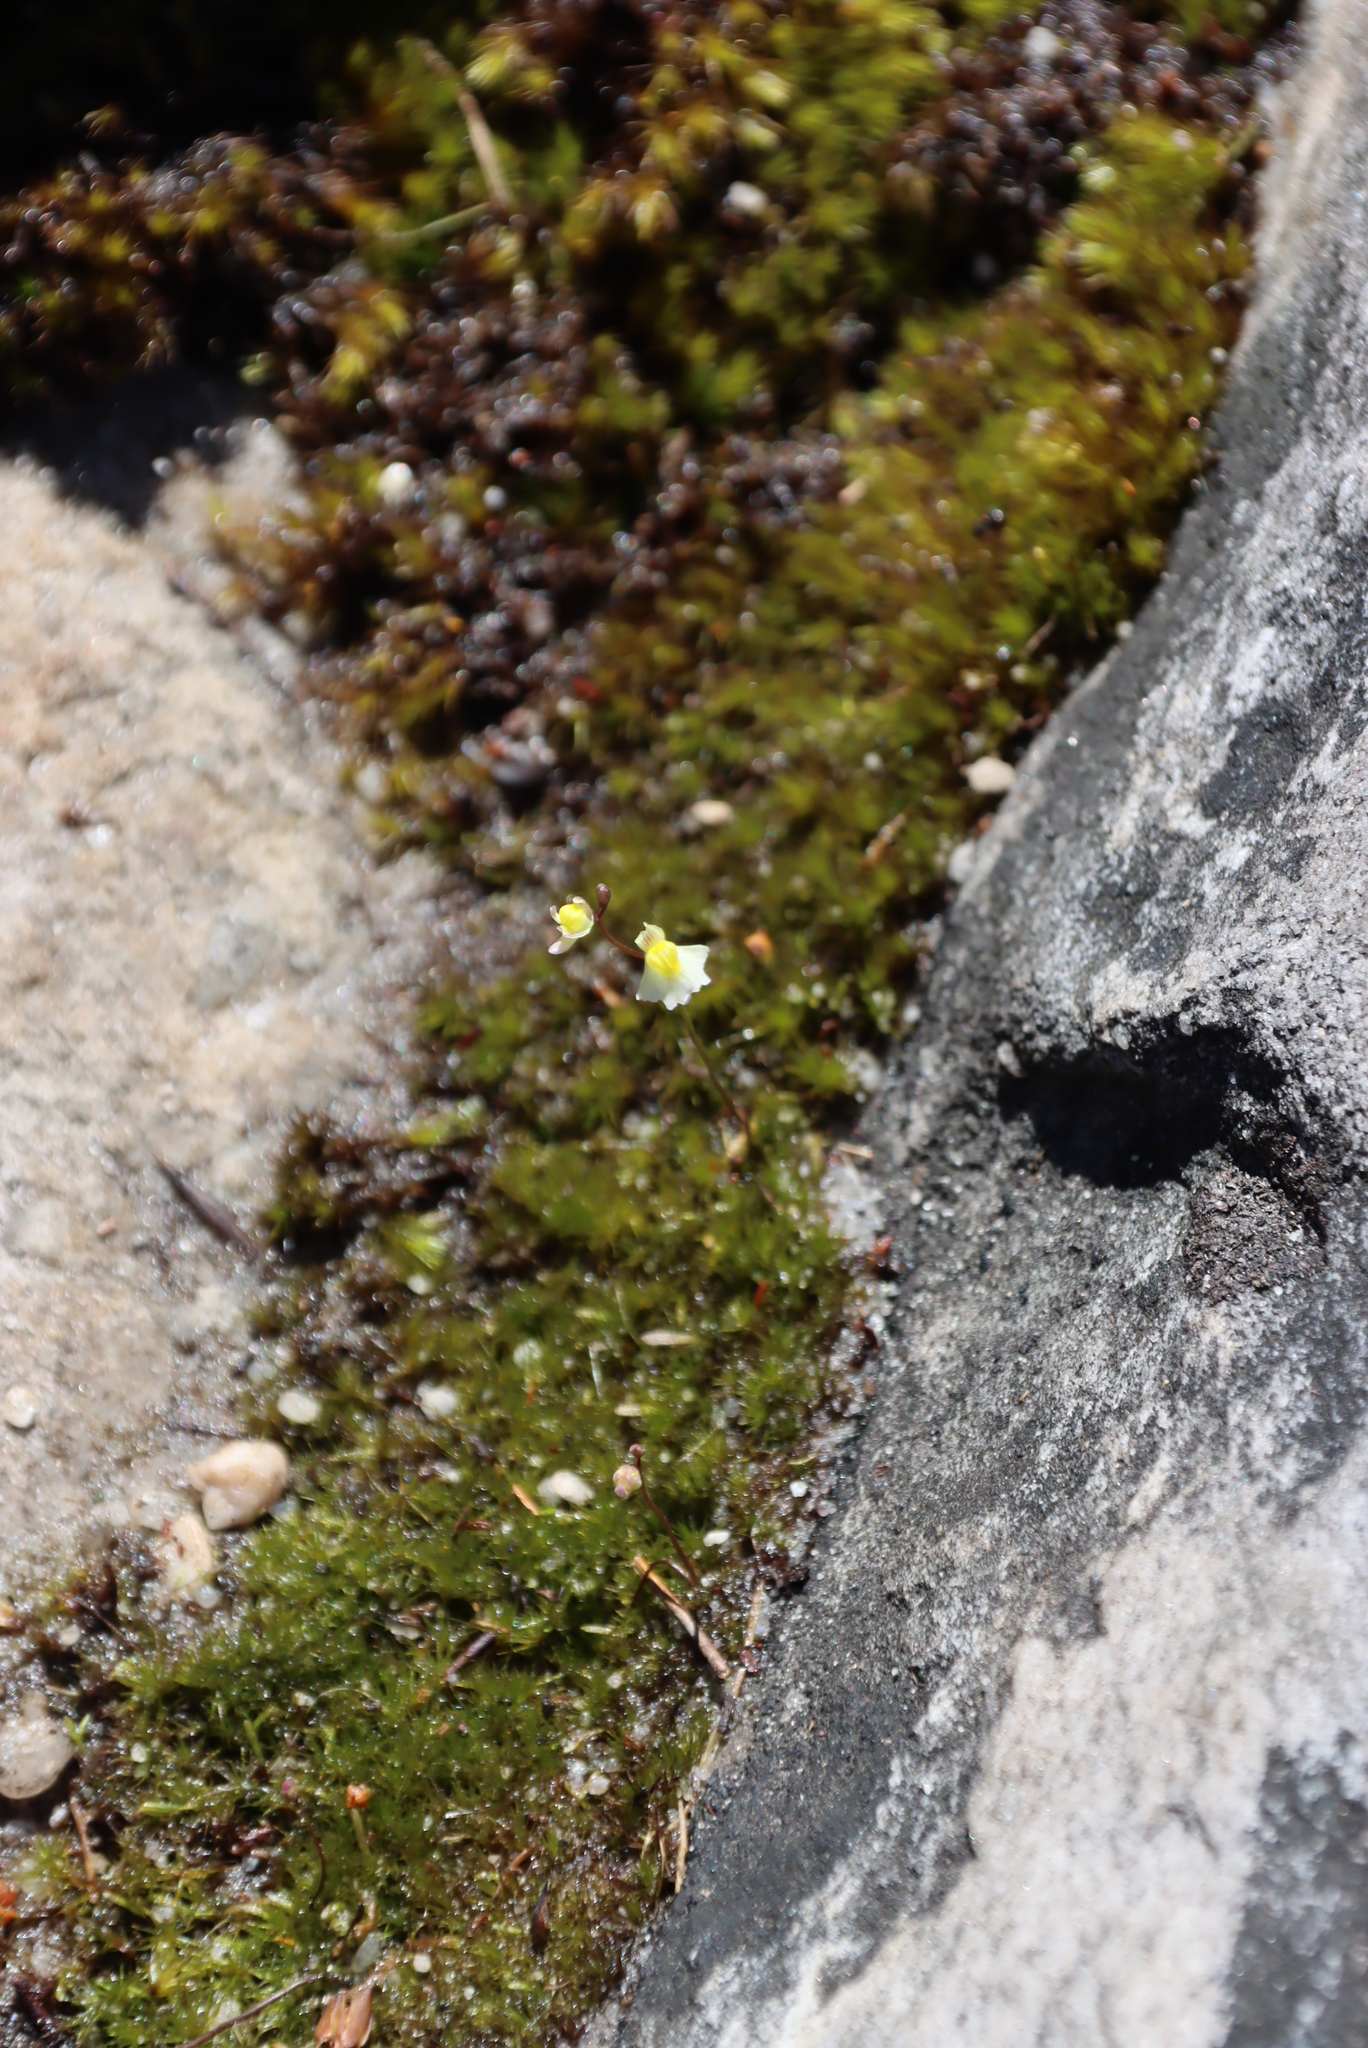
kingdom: Plantae
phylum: Tracheophyta
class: Magnoliopsida
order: Lamiales
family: Lentibulariaceae
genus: Utricularia
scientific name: Utricularia bisquamata
